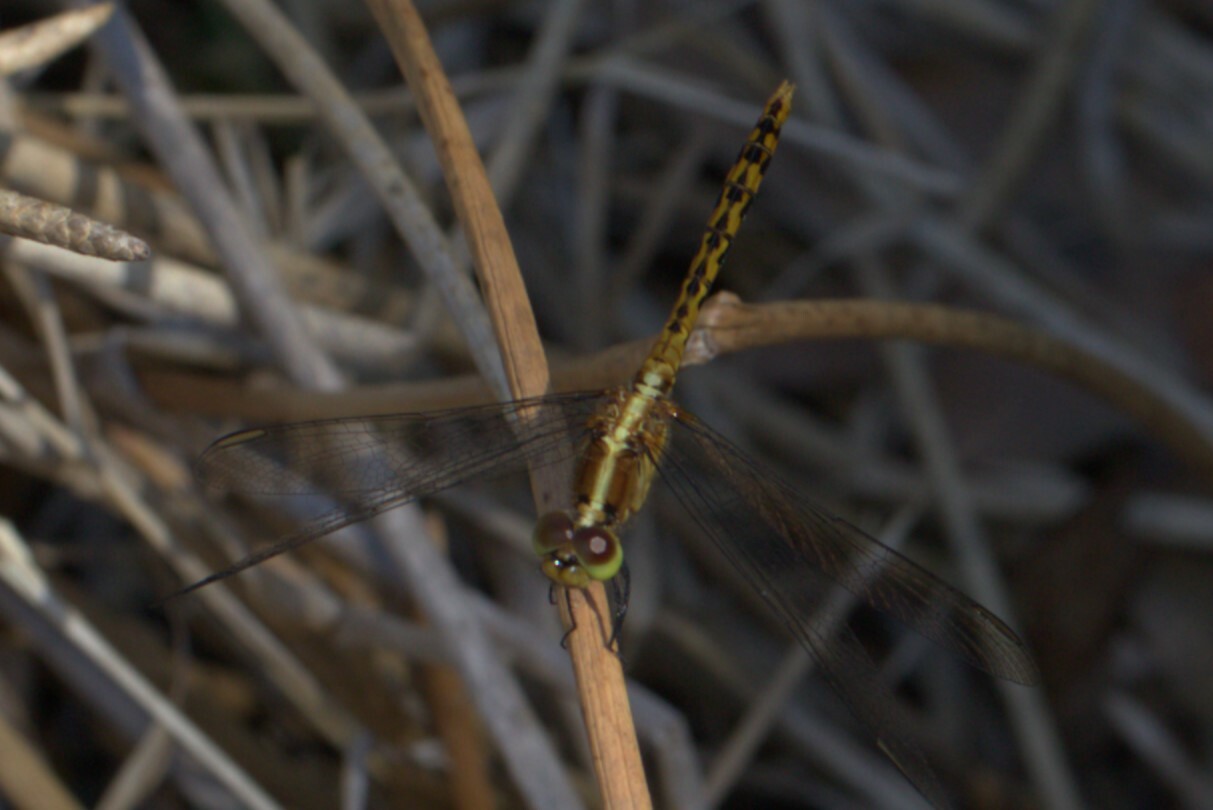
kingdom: Animalia
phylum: Arthropoda
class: Insecta
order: Odonata
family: Libellulidae
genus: Diplacodes
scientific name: Diplacodes melanopsis
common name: Black-faced percher
